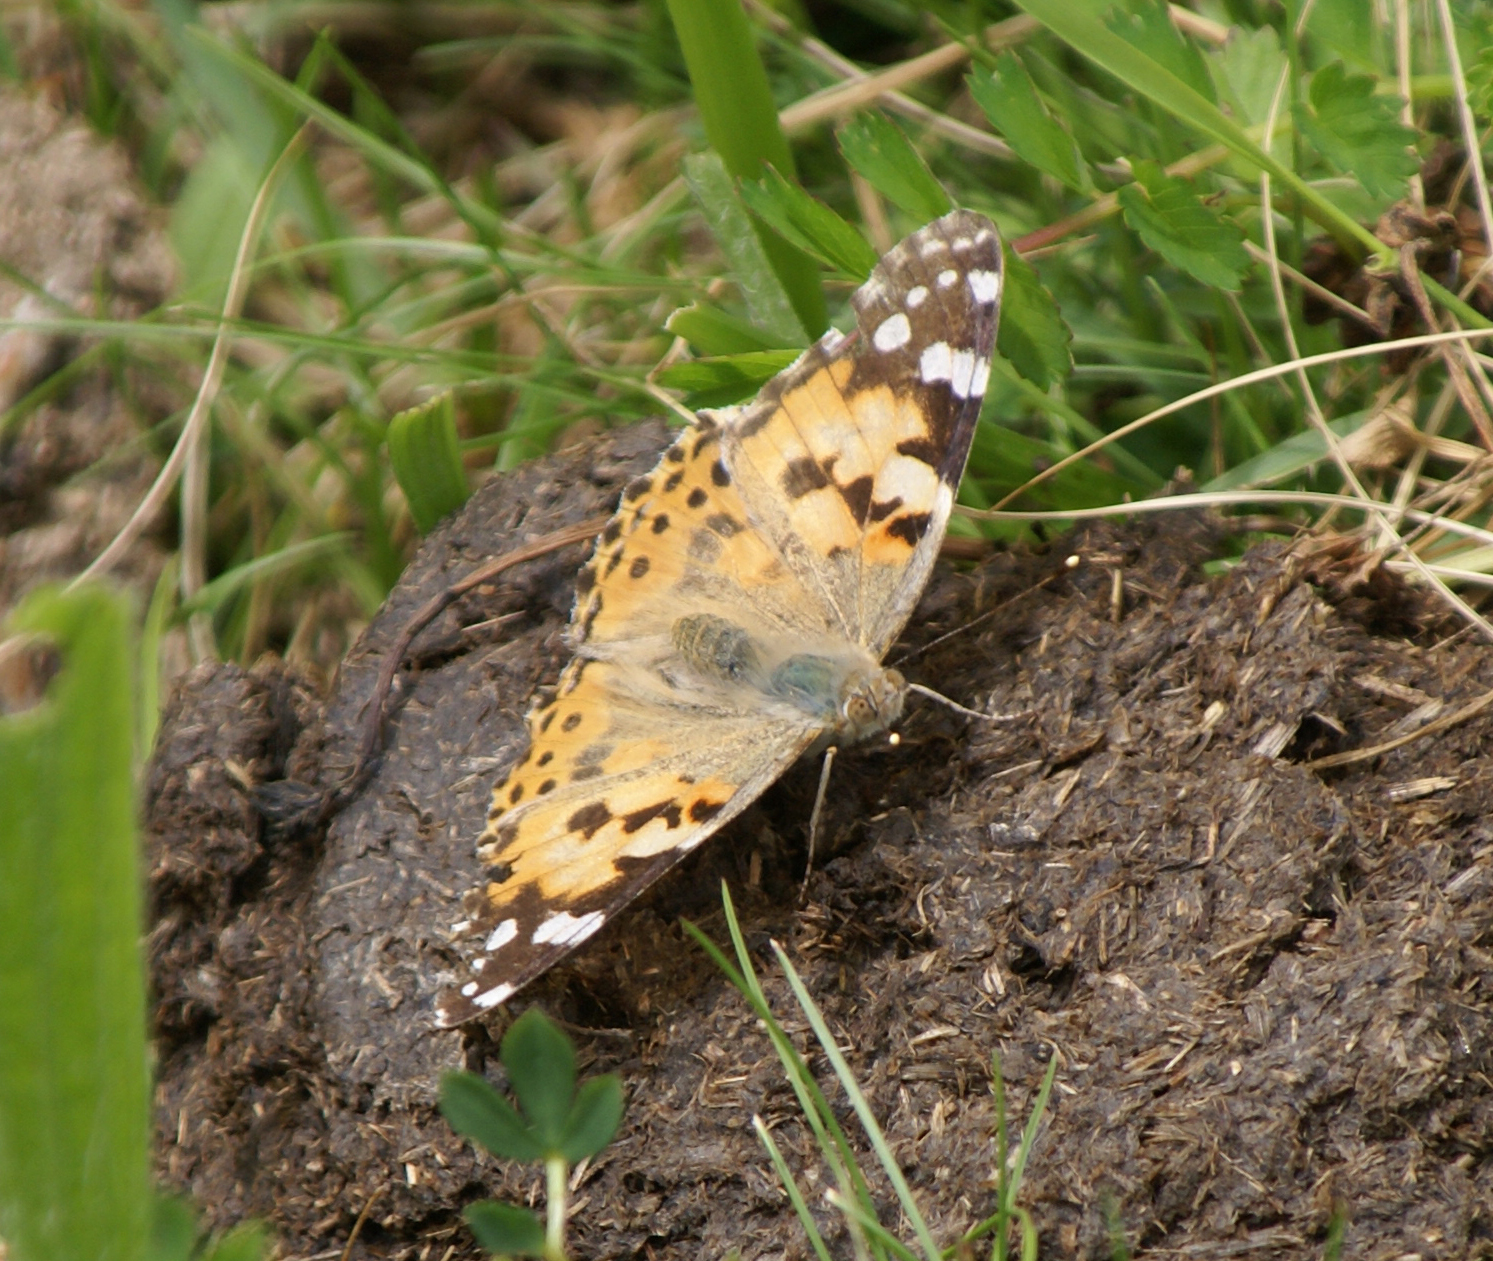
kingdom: Animalia
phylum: Arthropoda
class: Insecta
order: Lepidoptera
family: Nymphalidae
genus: Vanessa
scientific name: Vanessa cardui
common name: Painted lady
